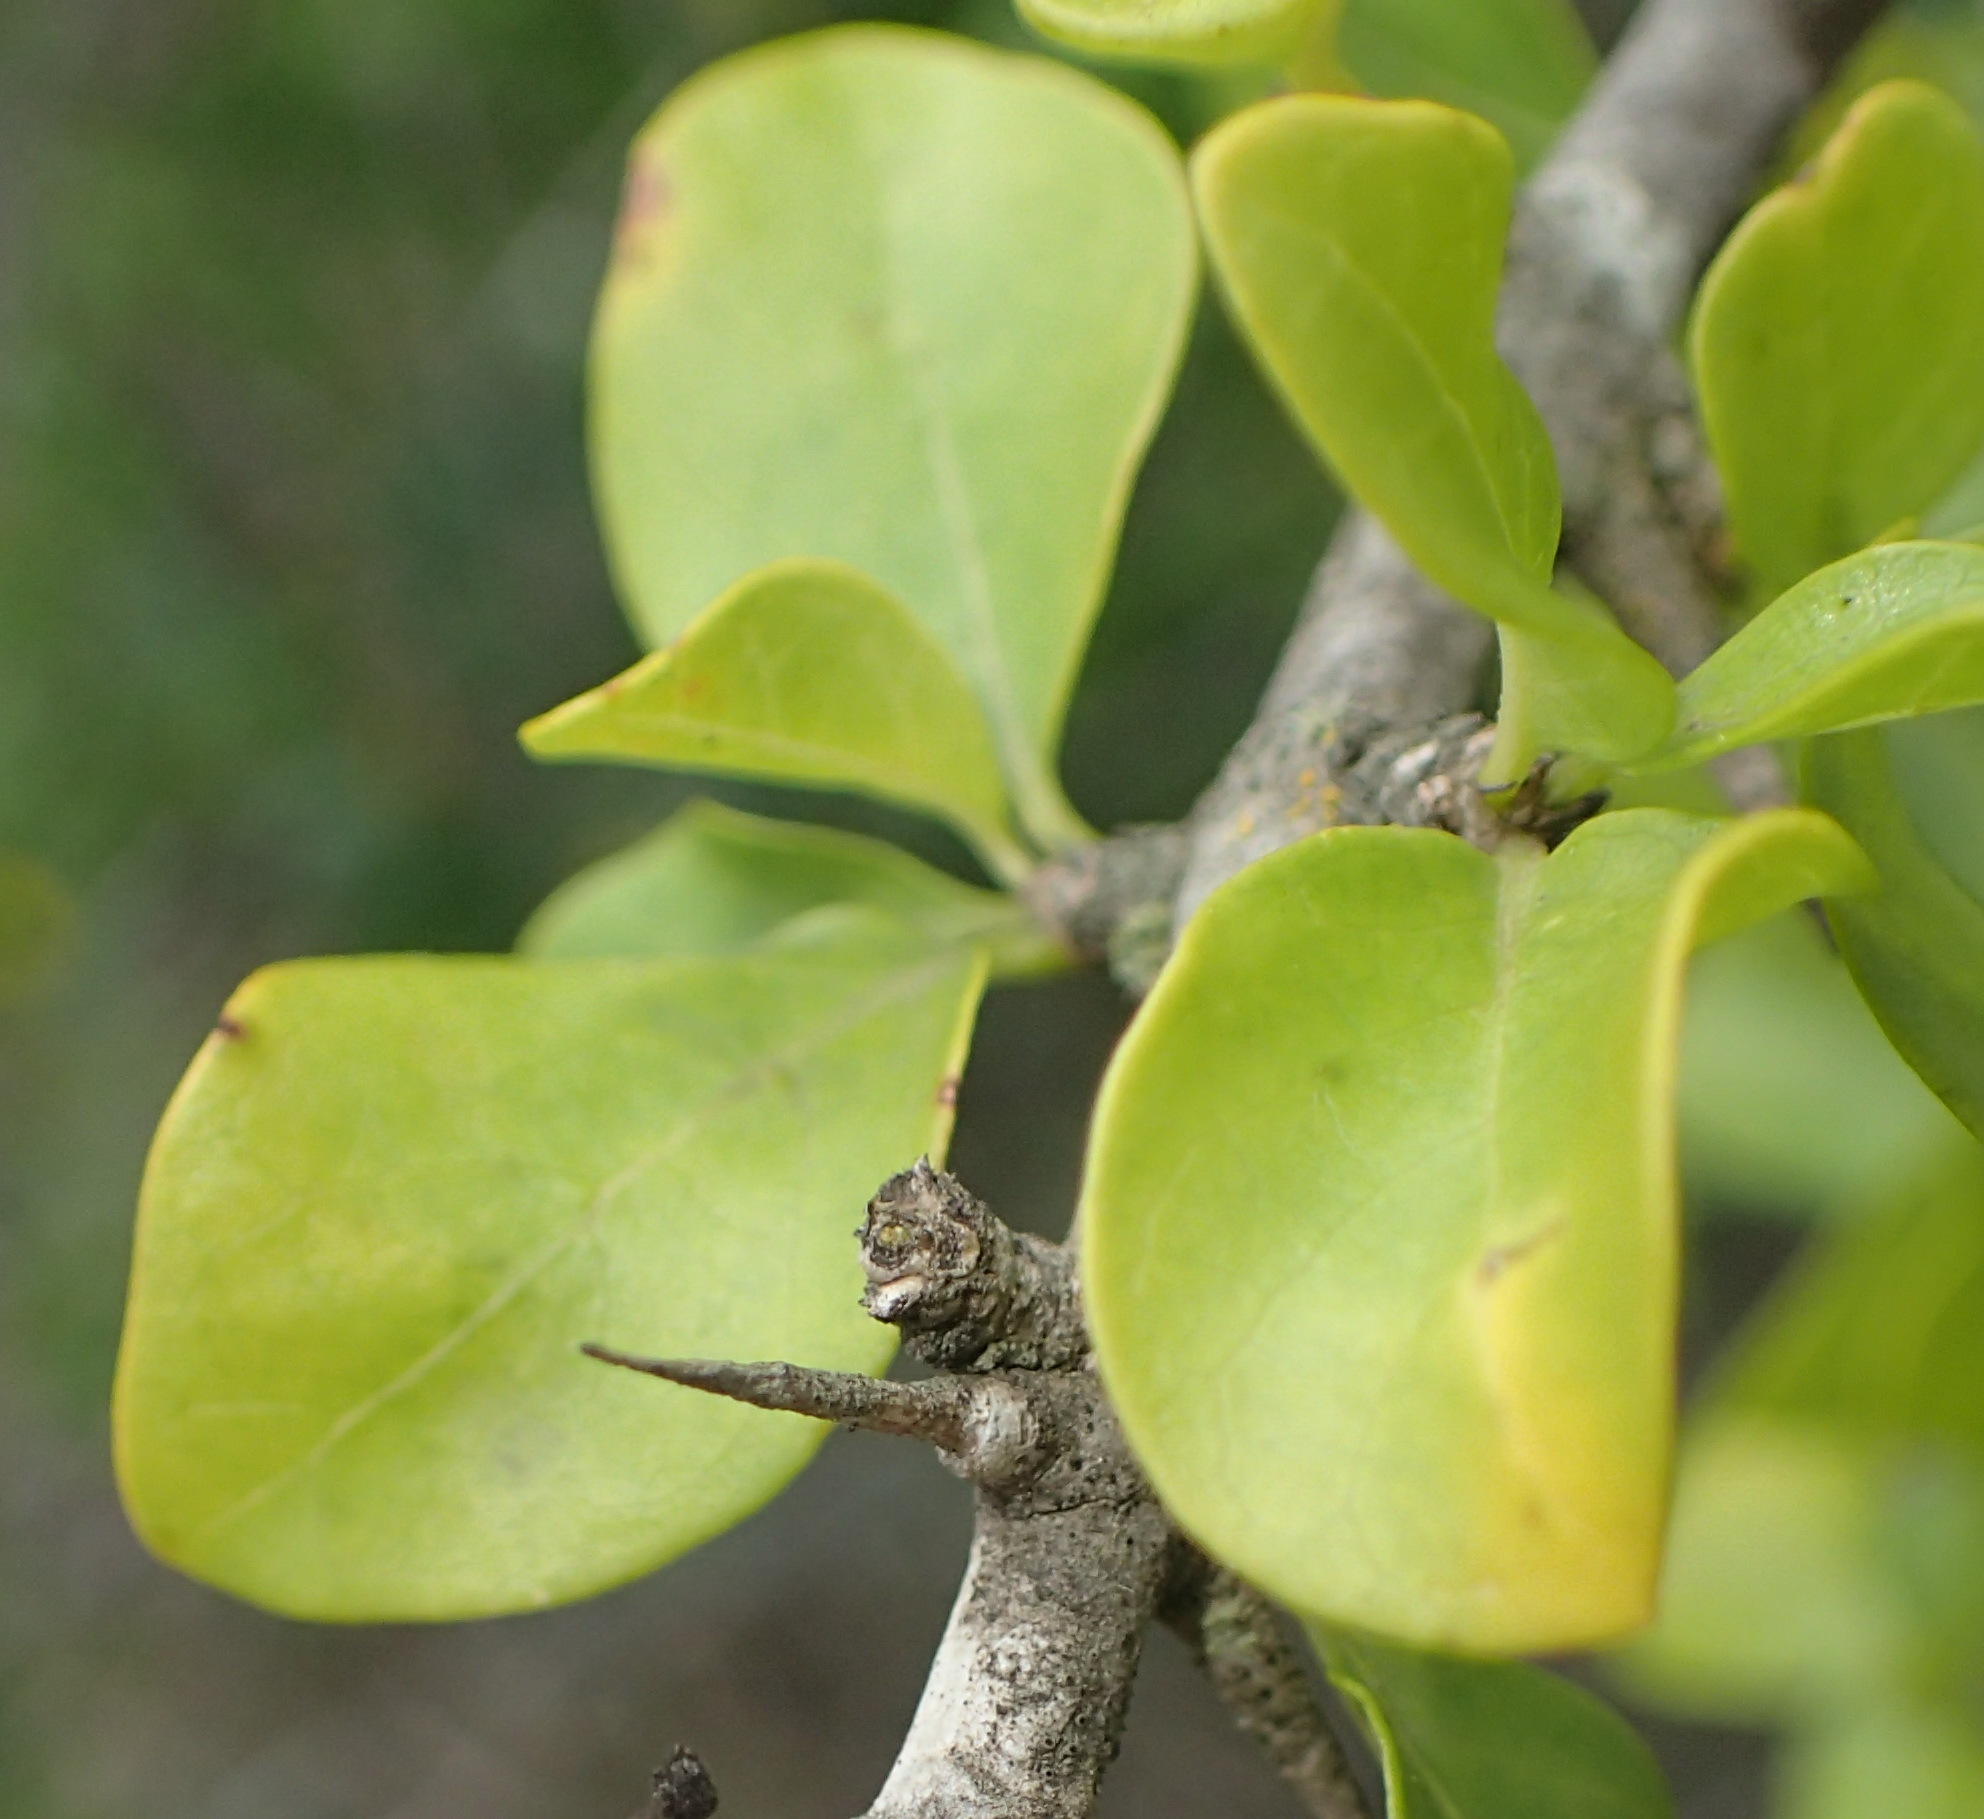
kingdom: Plantae
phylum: Tracheophyta
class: Magnoliopsida
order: Gentianales
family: Rubiaceae
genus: Catunaregam
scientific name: Catunaregam spinosa
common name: Emetic-nut
